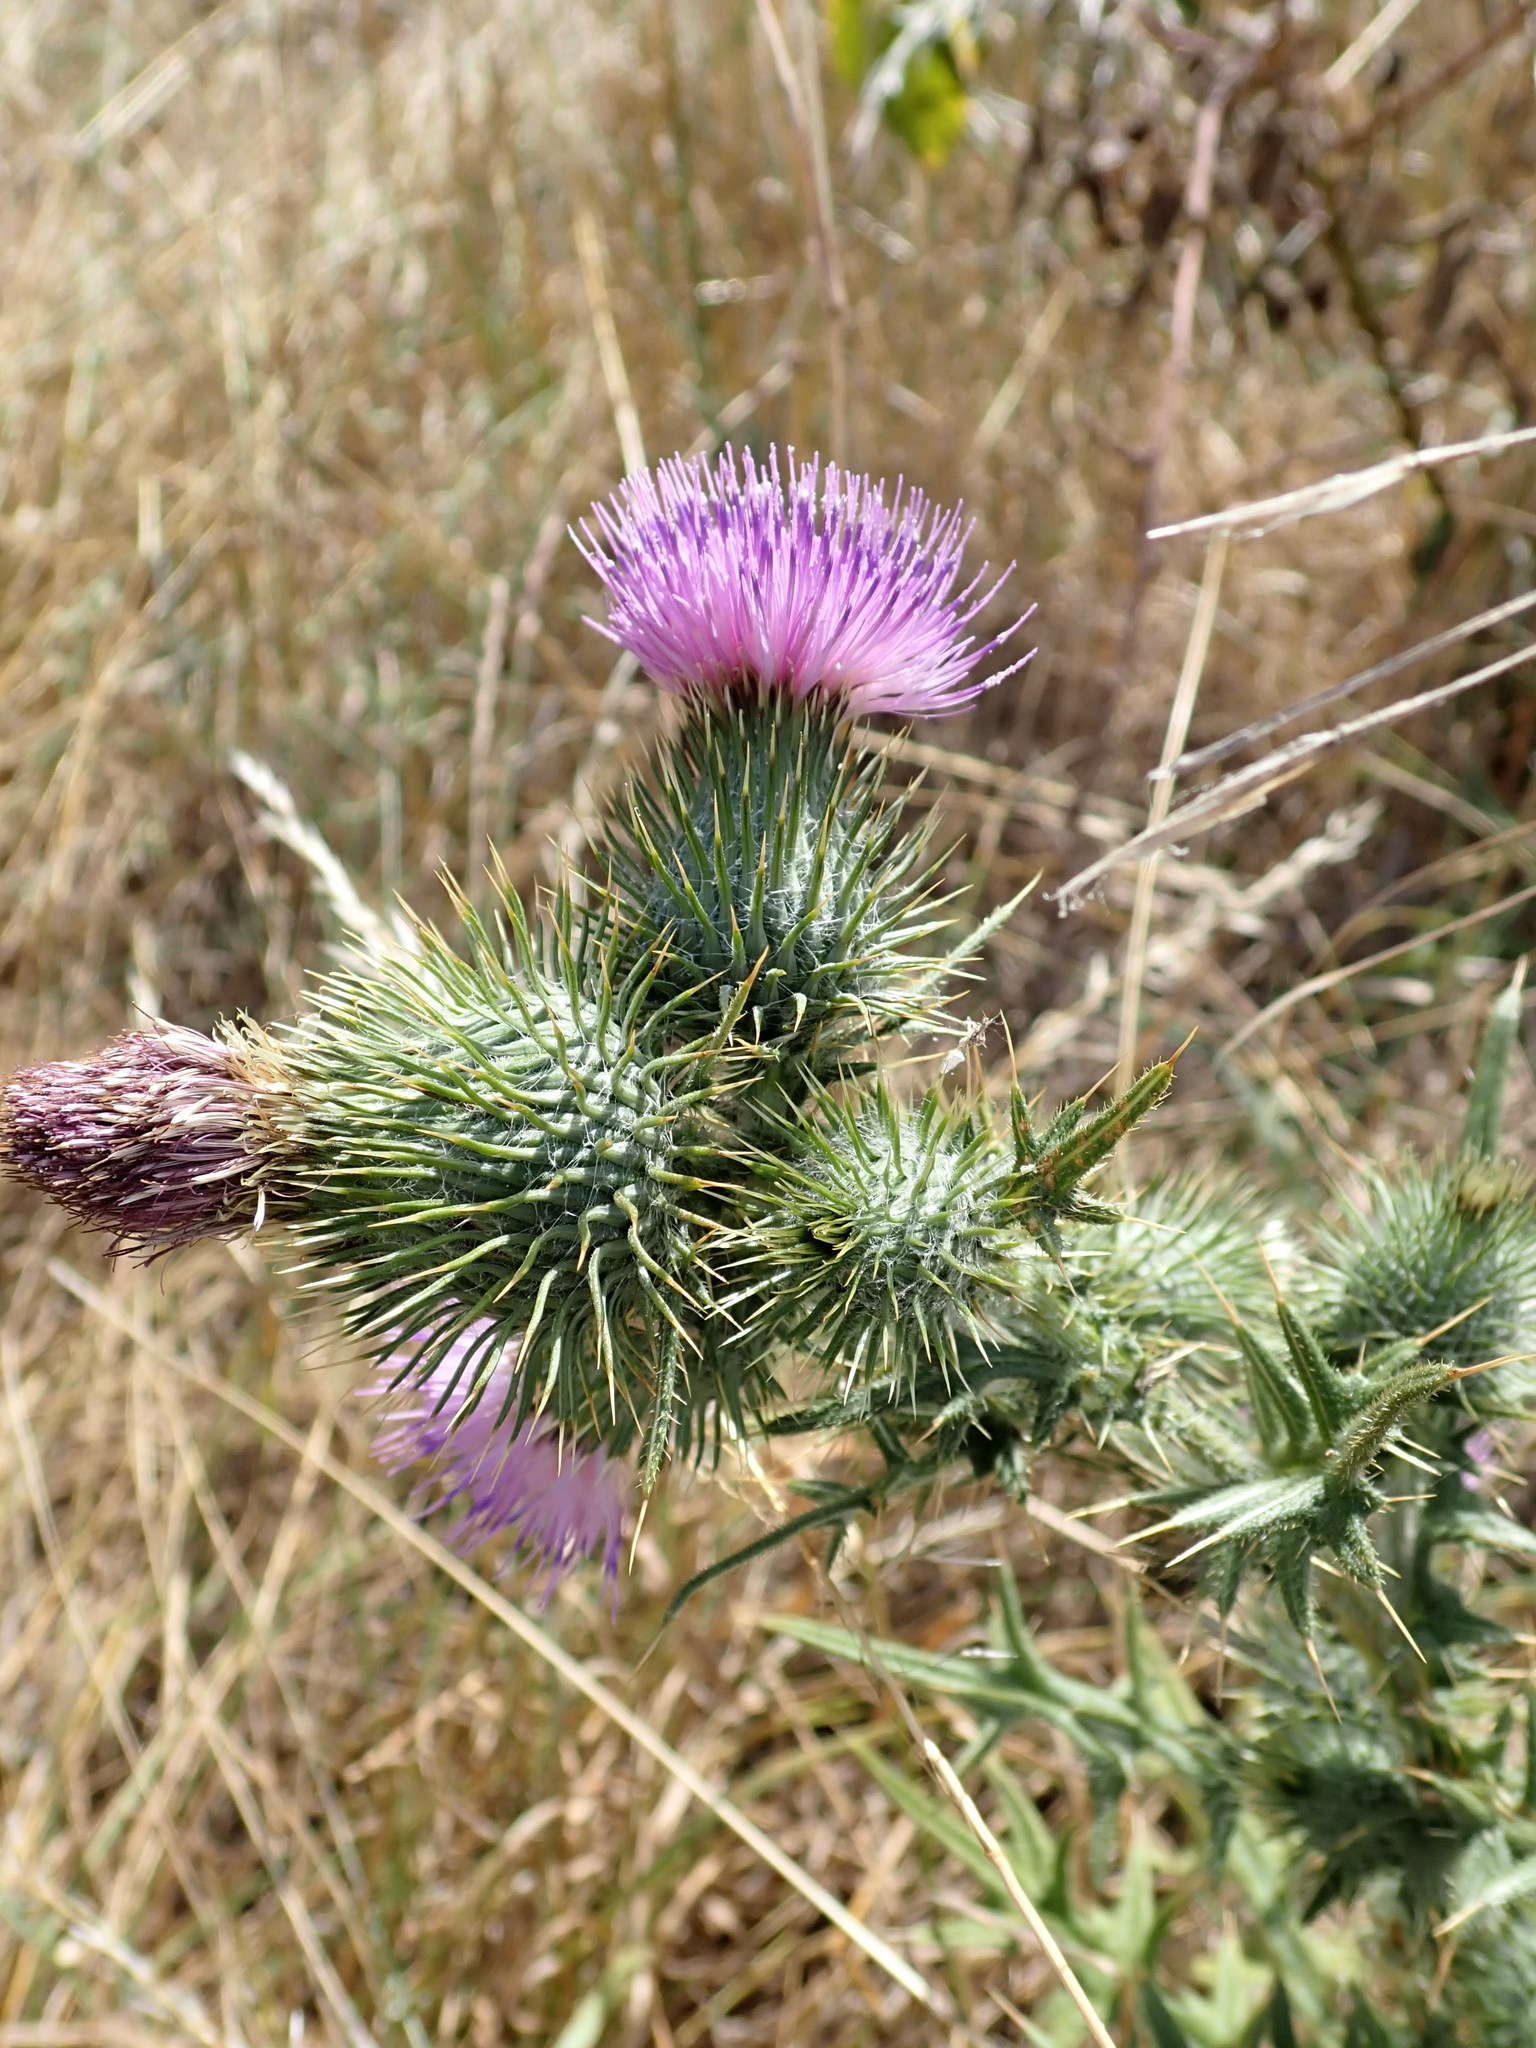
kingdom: Plantae
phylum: Tracheophyta
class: Magnoliopsida
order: Asterales
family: Asteraceae
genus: Cirsium
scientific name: Cirsium vulgare
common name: Bull thistle
